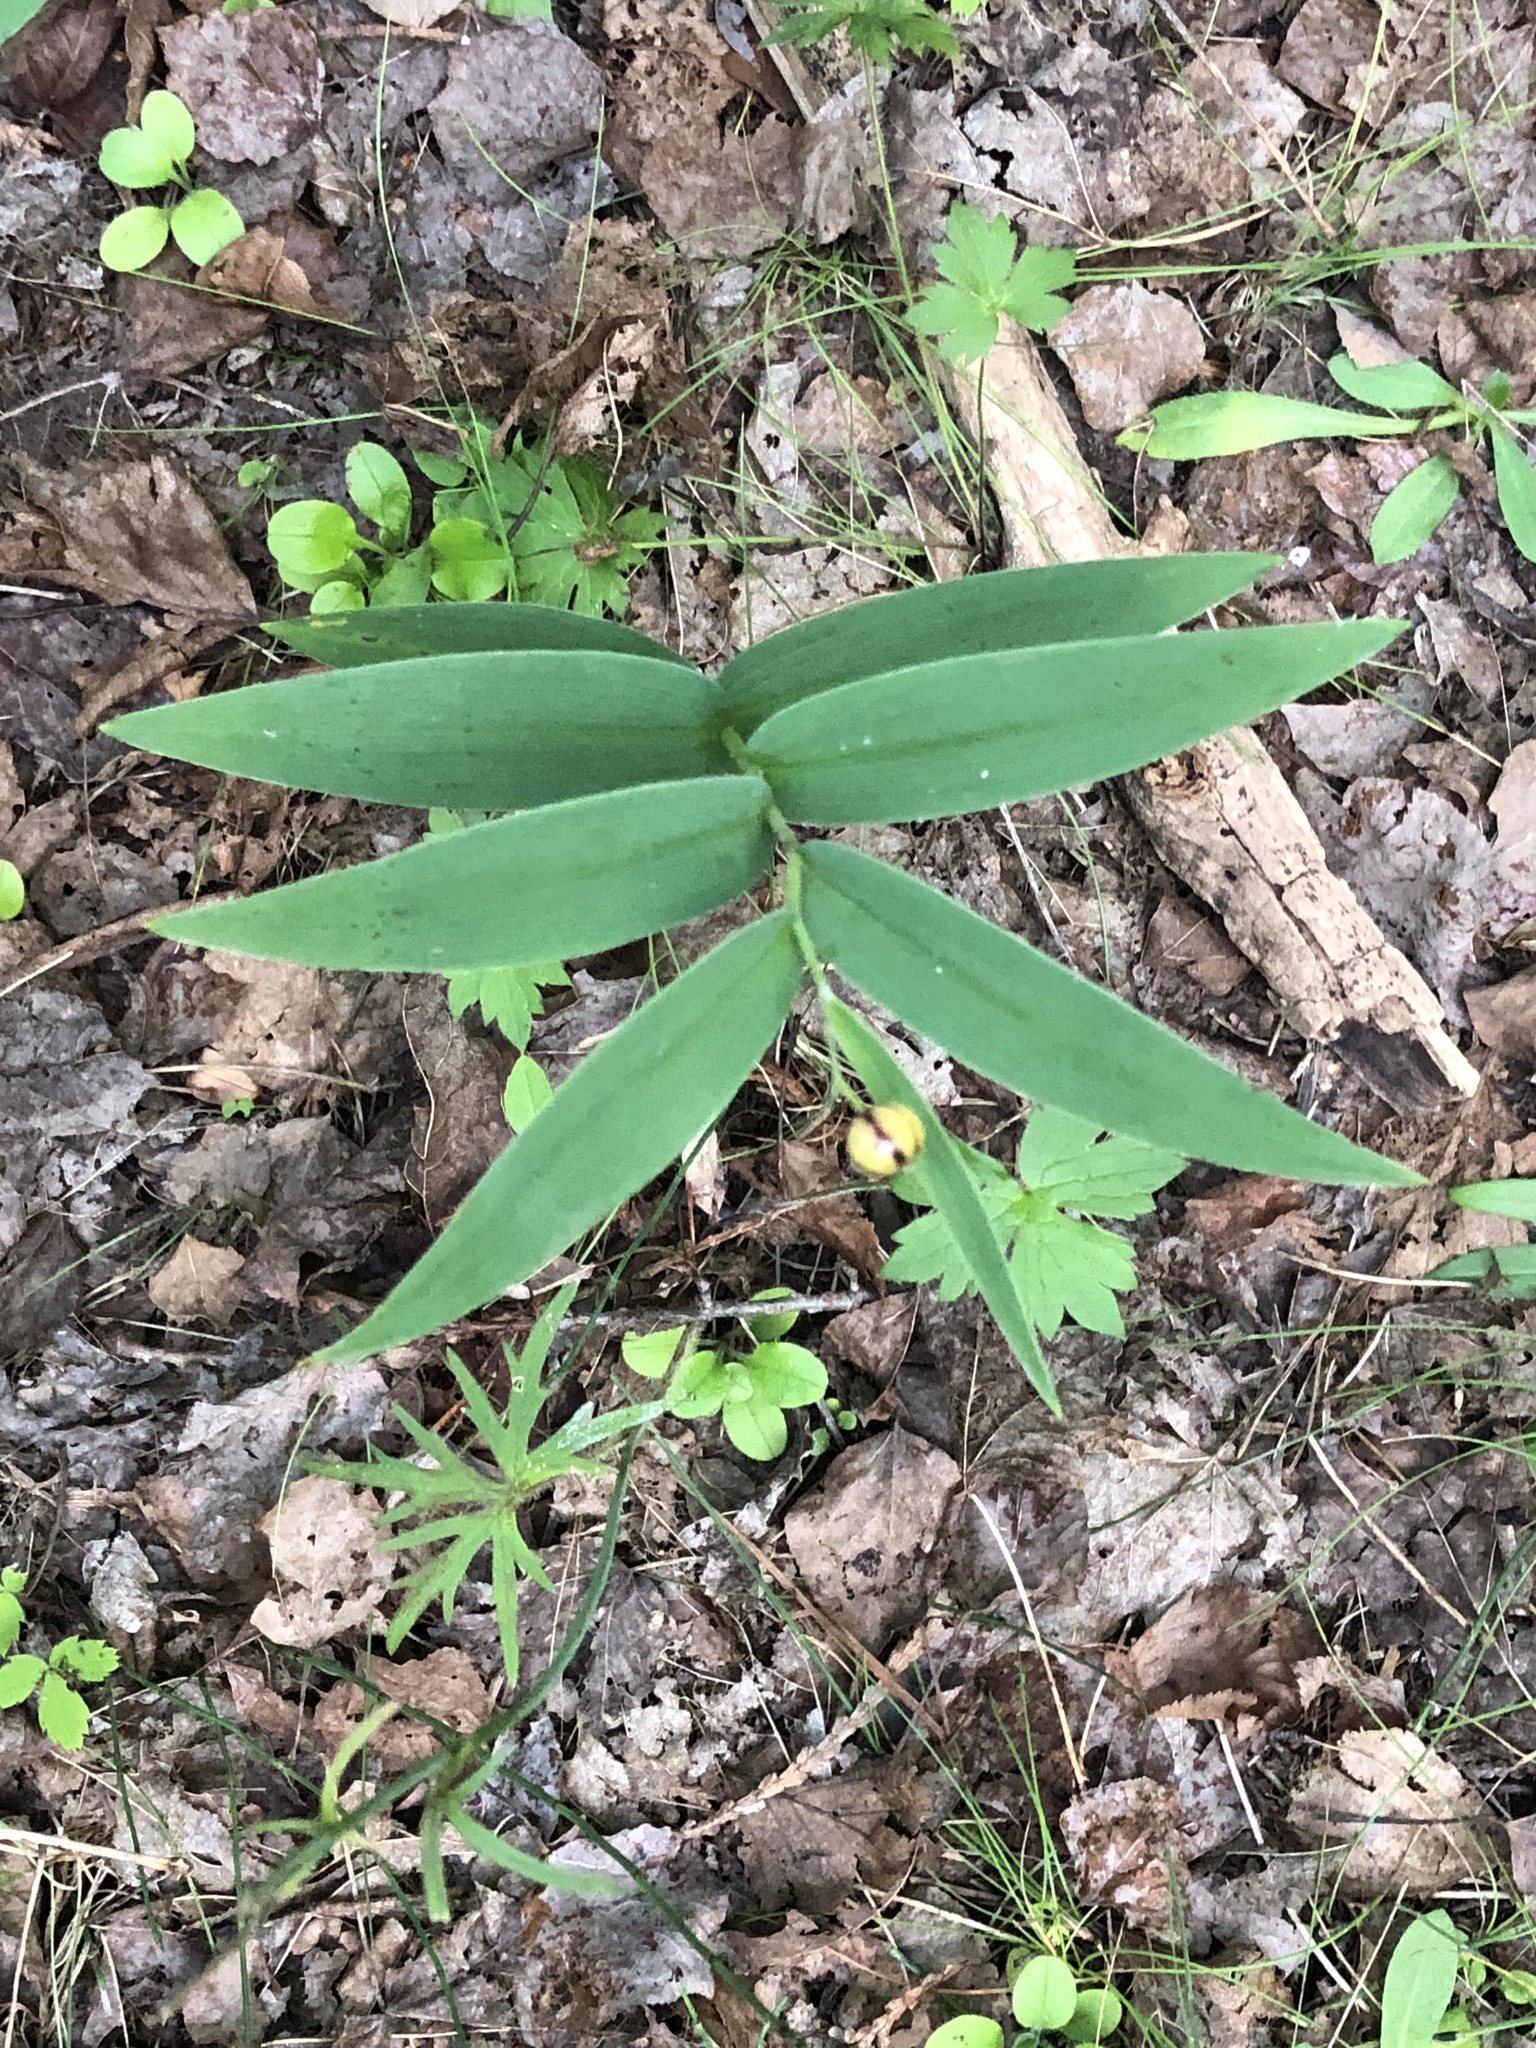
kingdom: Plantae
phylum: Tracheophyta
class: Liliopsida
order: Asparagales
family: Asparagaceae
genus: Maianthemum
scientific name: Maianthemum stellatum
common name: Little false solomon's seal
